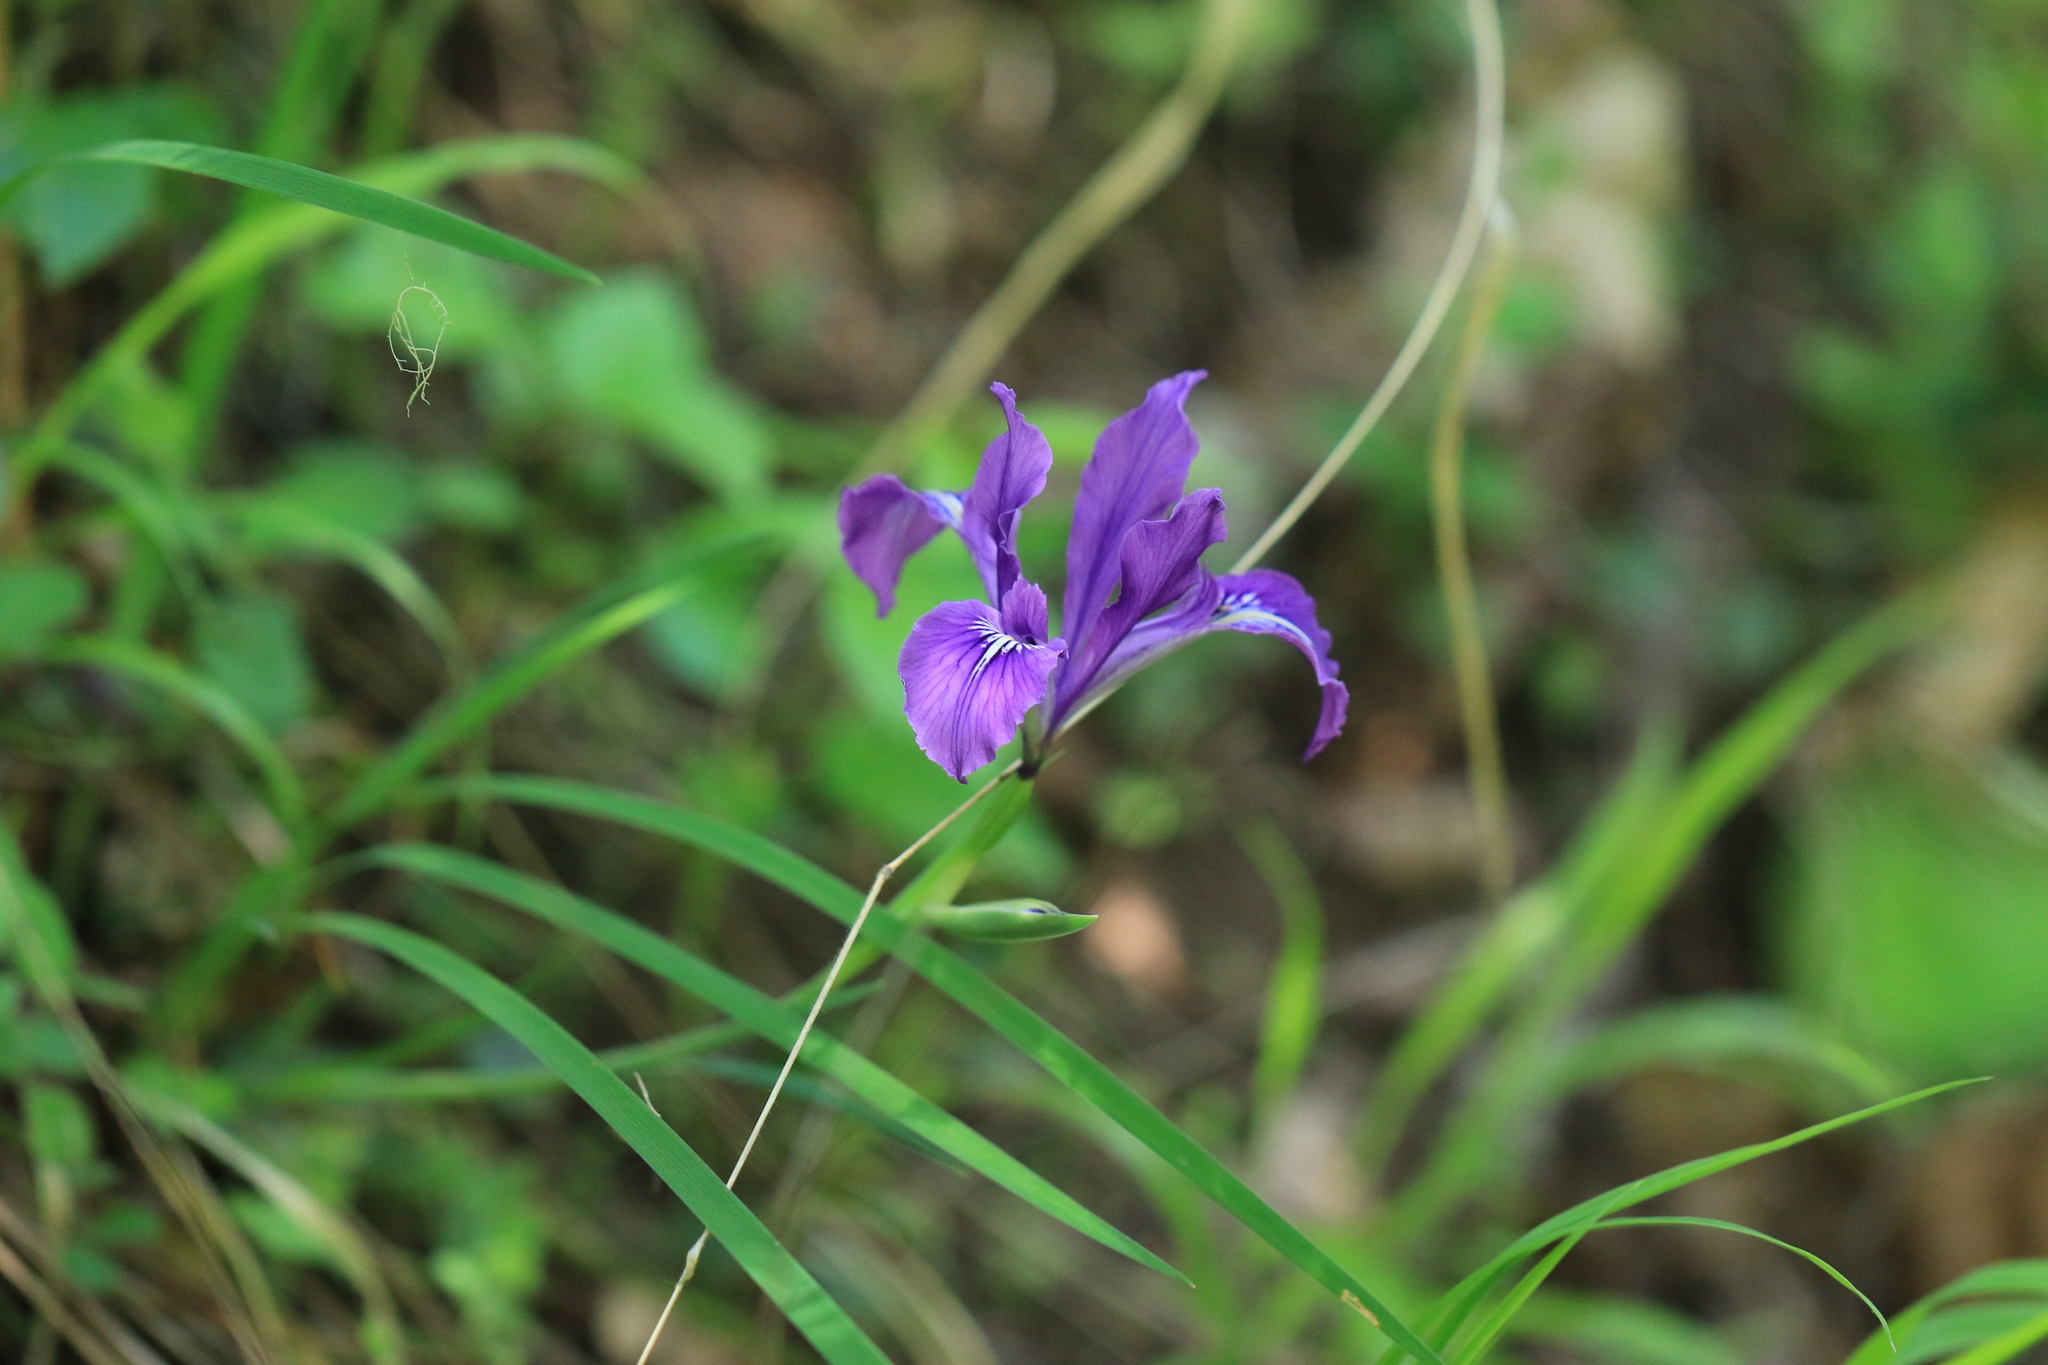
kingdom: Plantae
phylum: Tracheophyta
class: Liliopsida
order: Asparagales
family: Iridaceae
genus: Iris
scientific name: Iris tenax
